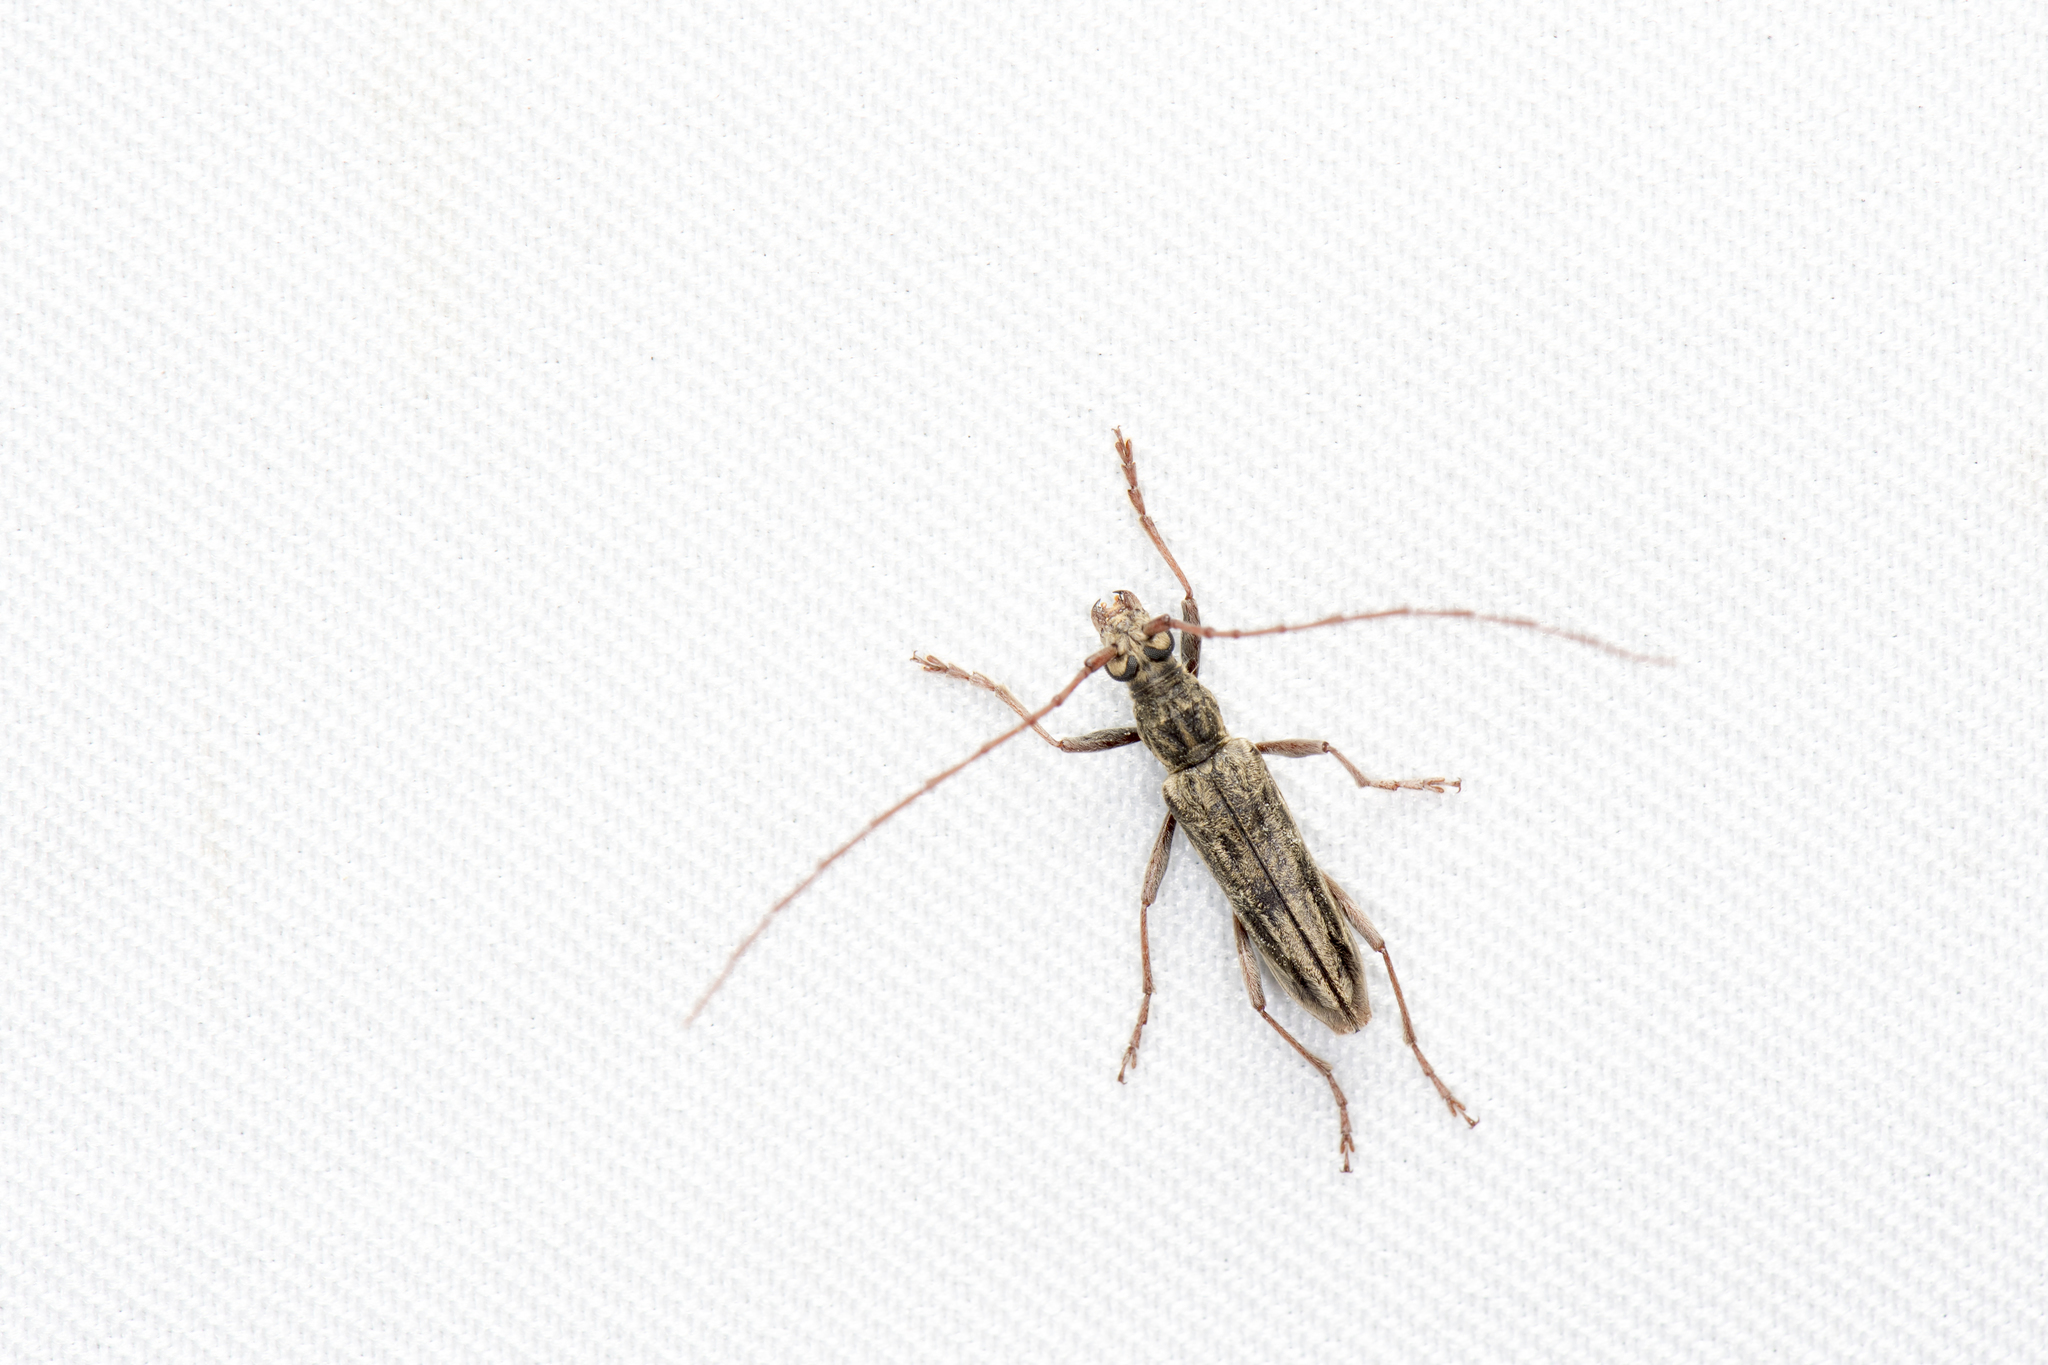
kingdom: Animalia
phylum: Arthropoda
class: Insecta
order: Coleoptera
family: Cerambycidae
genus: Elydnus
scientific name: Elydnus hirayamai
